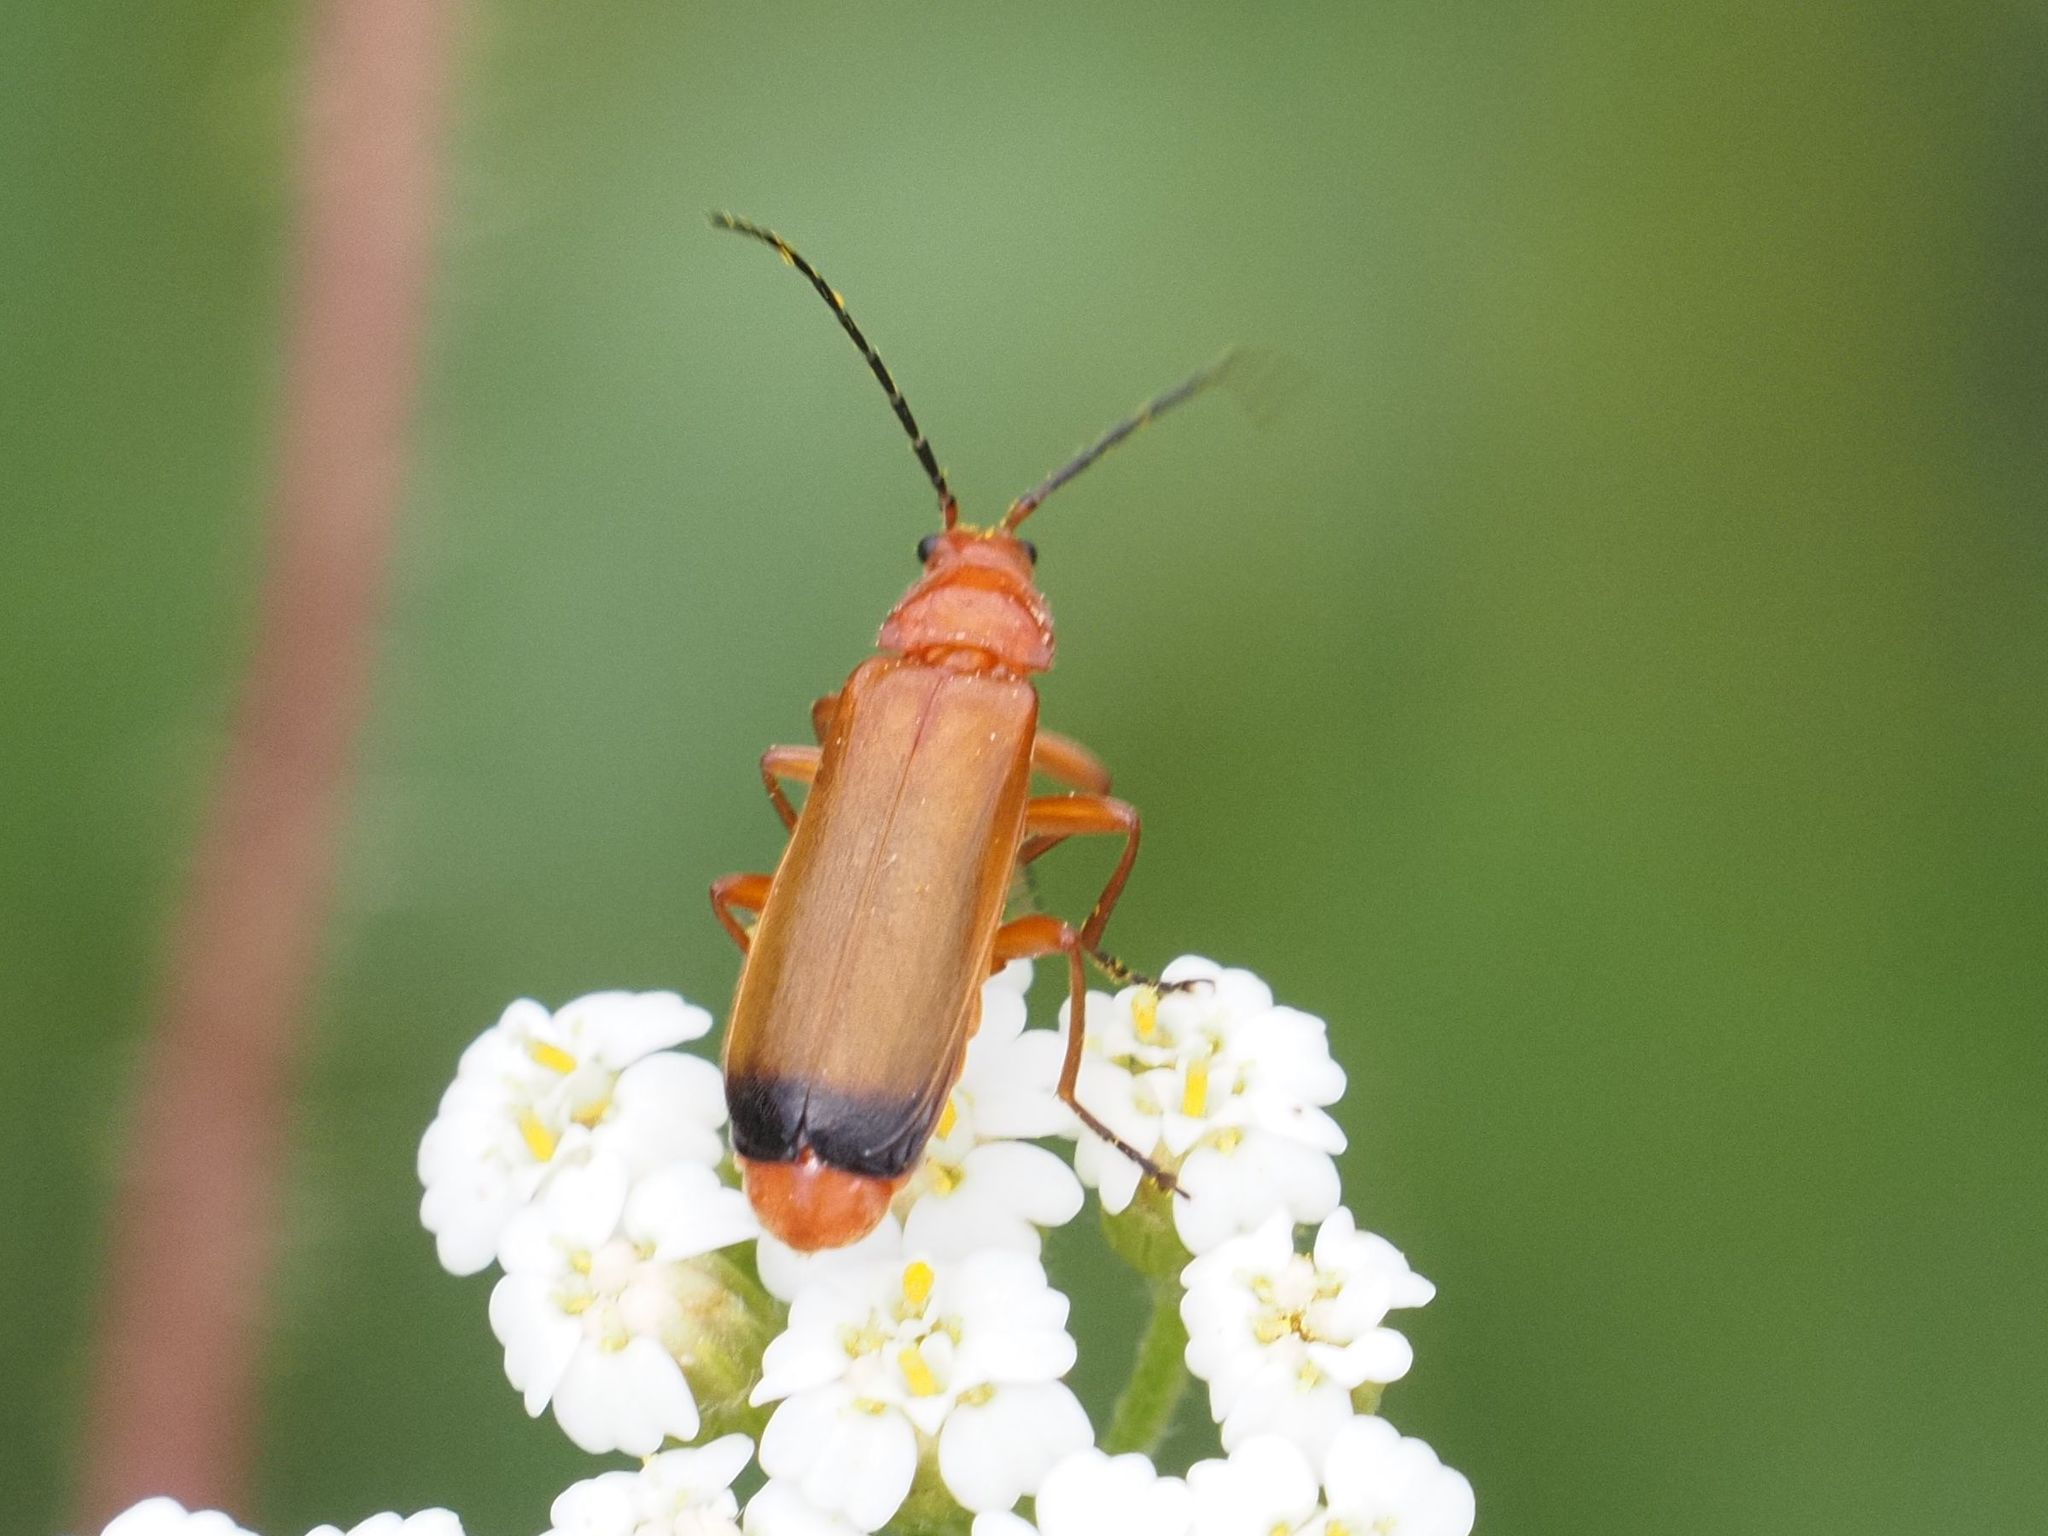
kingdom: Animalia
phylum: Arthropoda
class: Insecta
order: Coleoptera
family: Cantharidae
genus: Rhagonycha
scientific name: Rhagonycha fulva
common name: Common red soldier beetle
